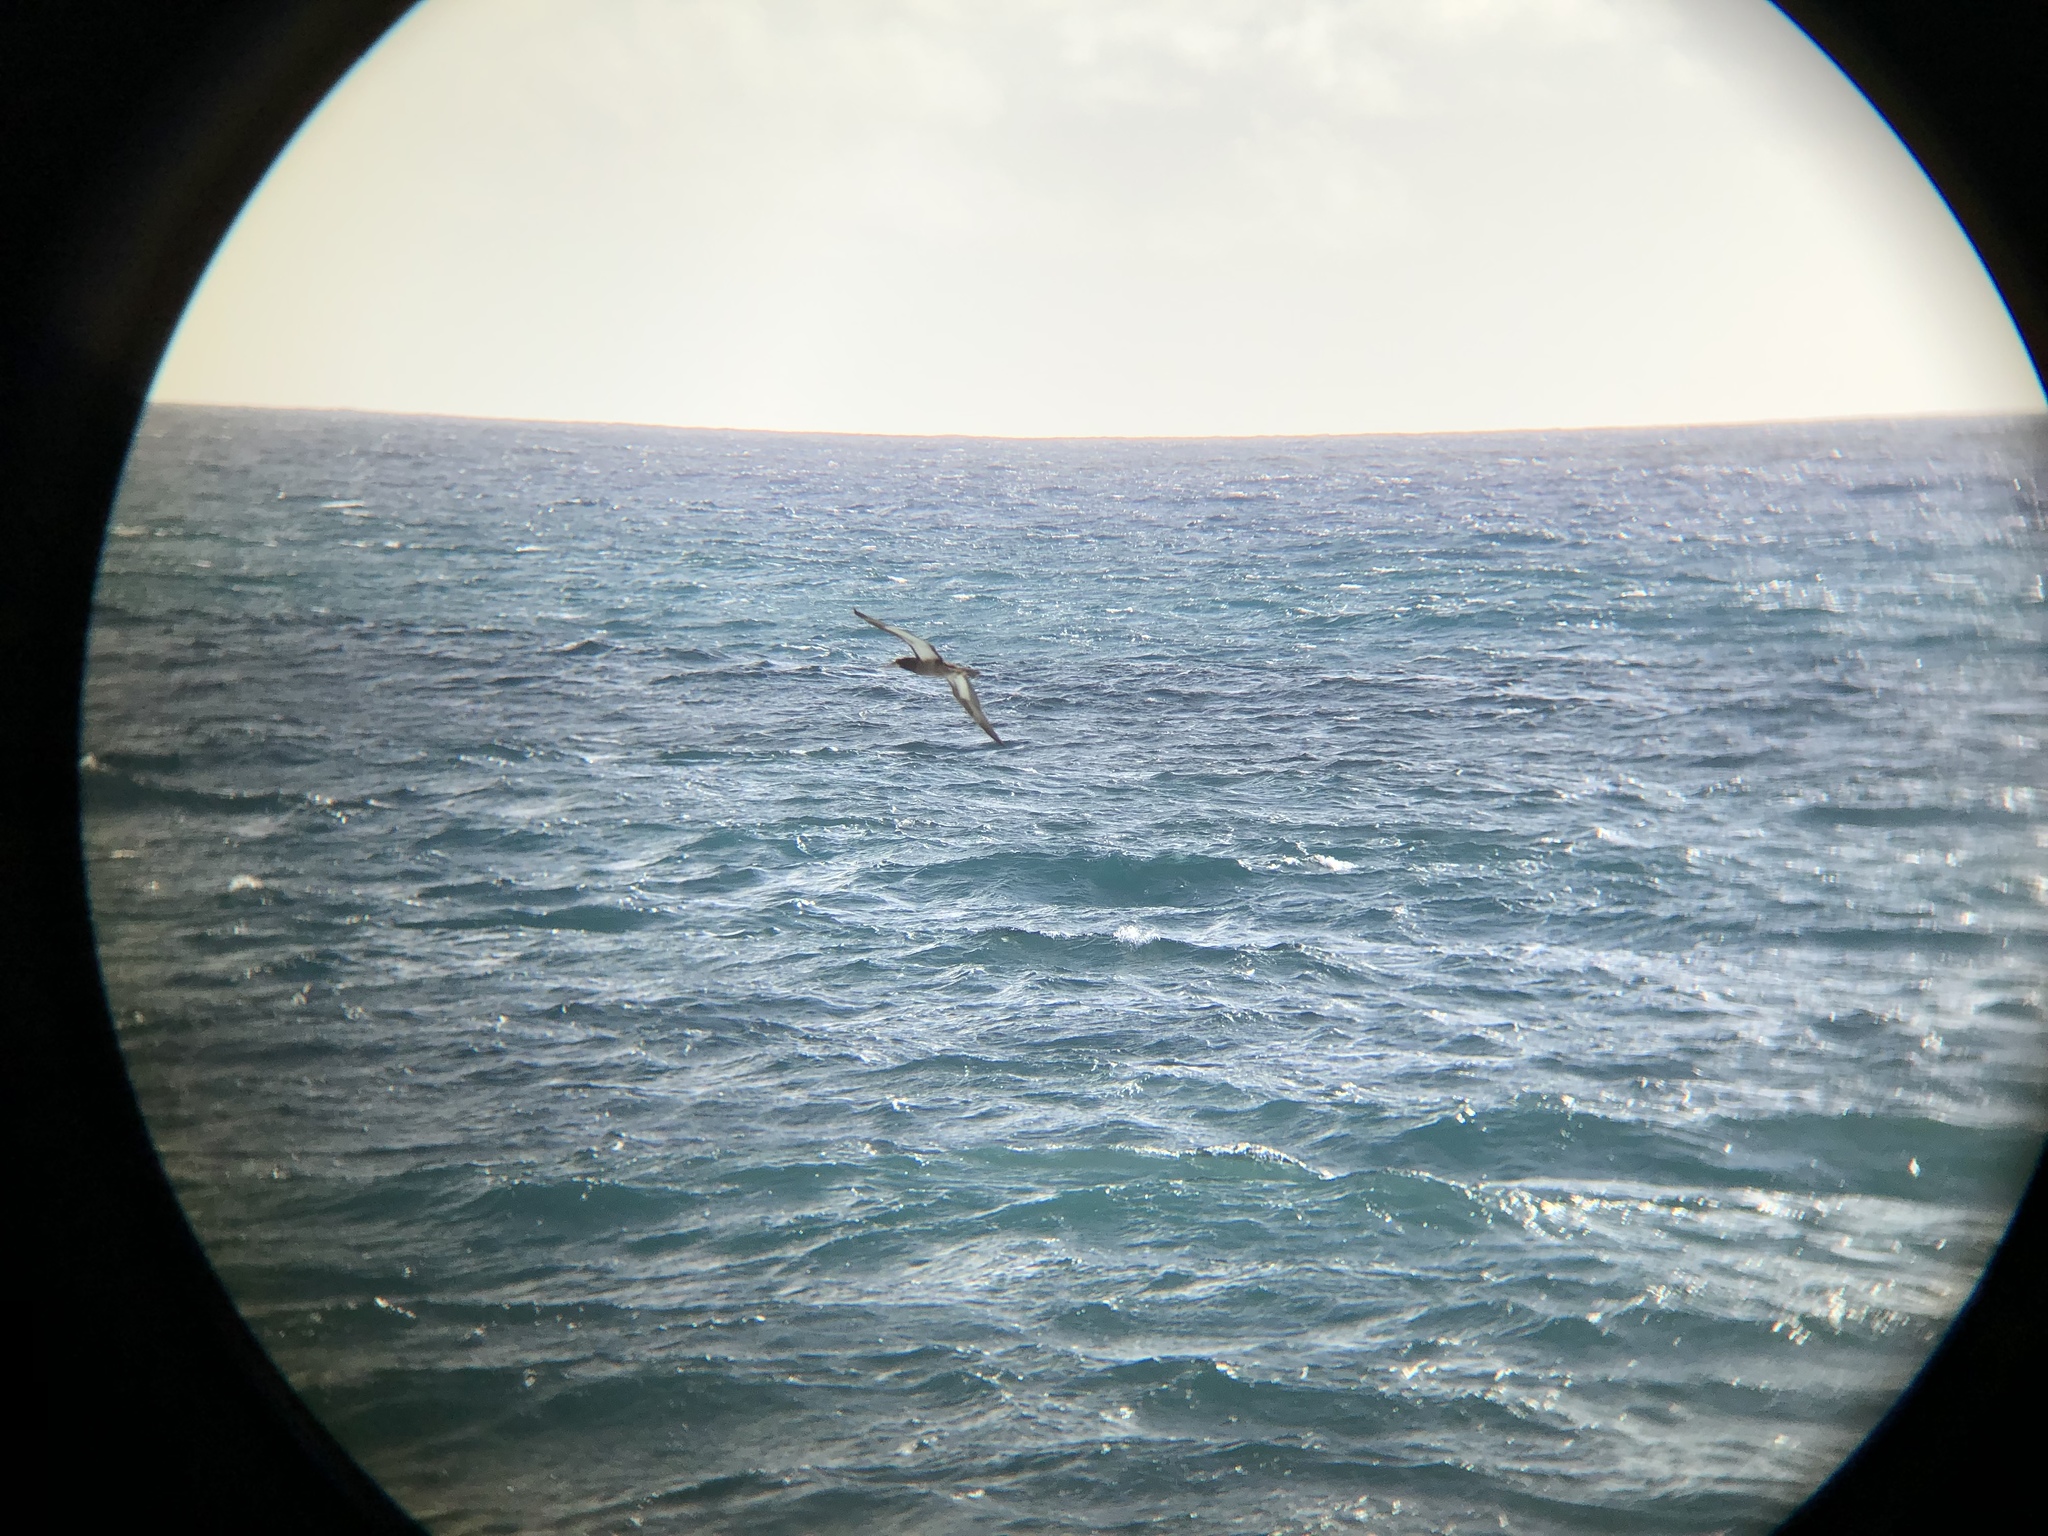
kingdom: Animalia
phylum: Chordata
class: Aves
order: Suliformes
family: Sulidae
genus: Sula
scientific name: Sula leucogaster
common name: Brown booby
